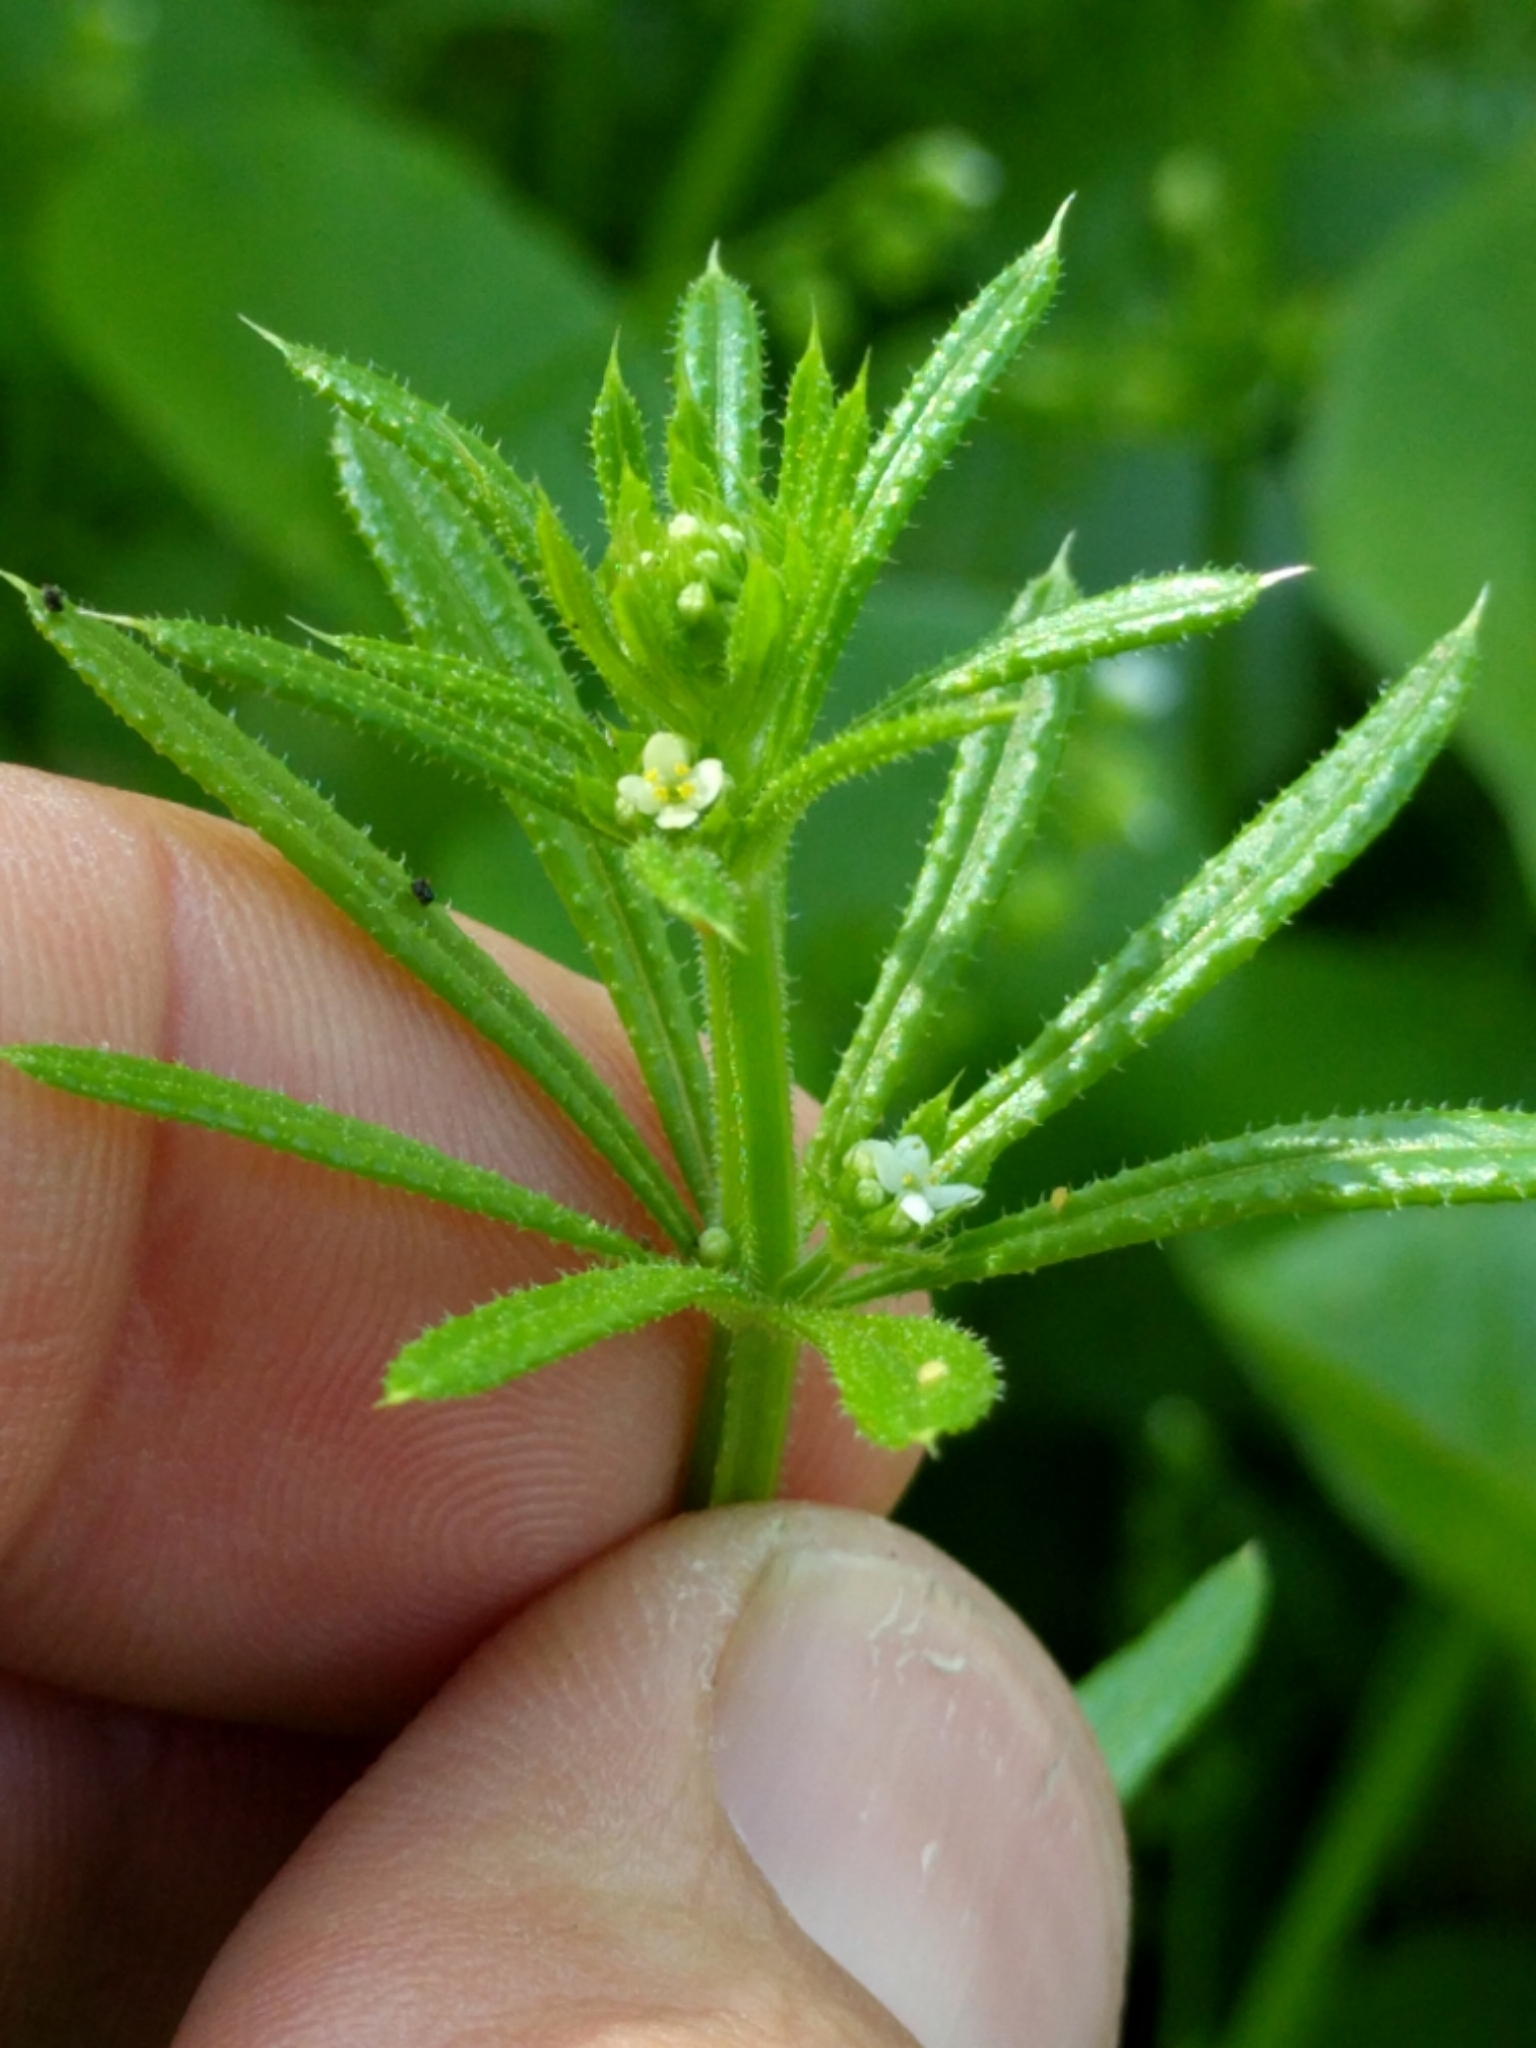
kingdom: Plantae
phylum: Tracheophyta
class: Magnoliopsida
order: Gentianales
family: Rubiaceae
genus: Galium
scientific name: Galium aparine
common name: Cleavers
